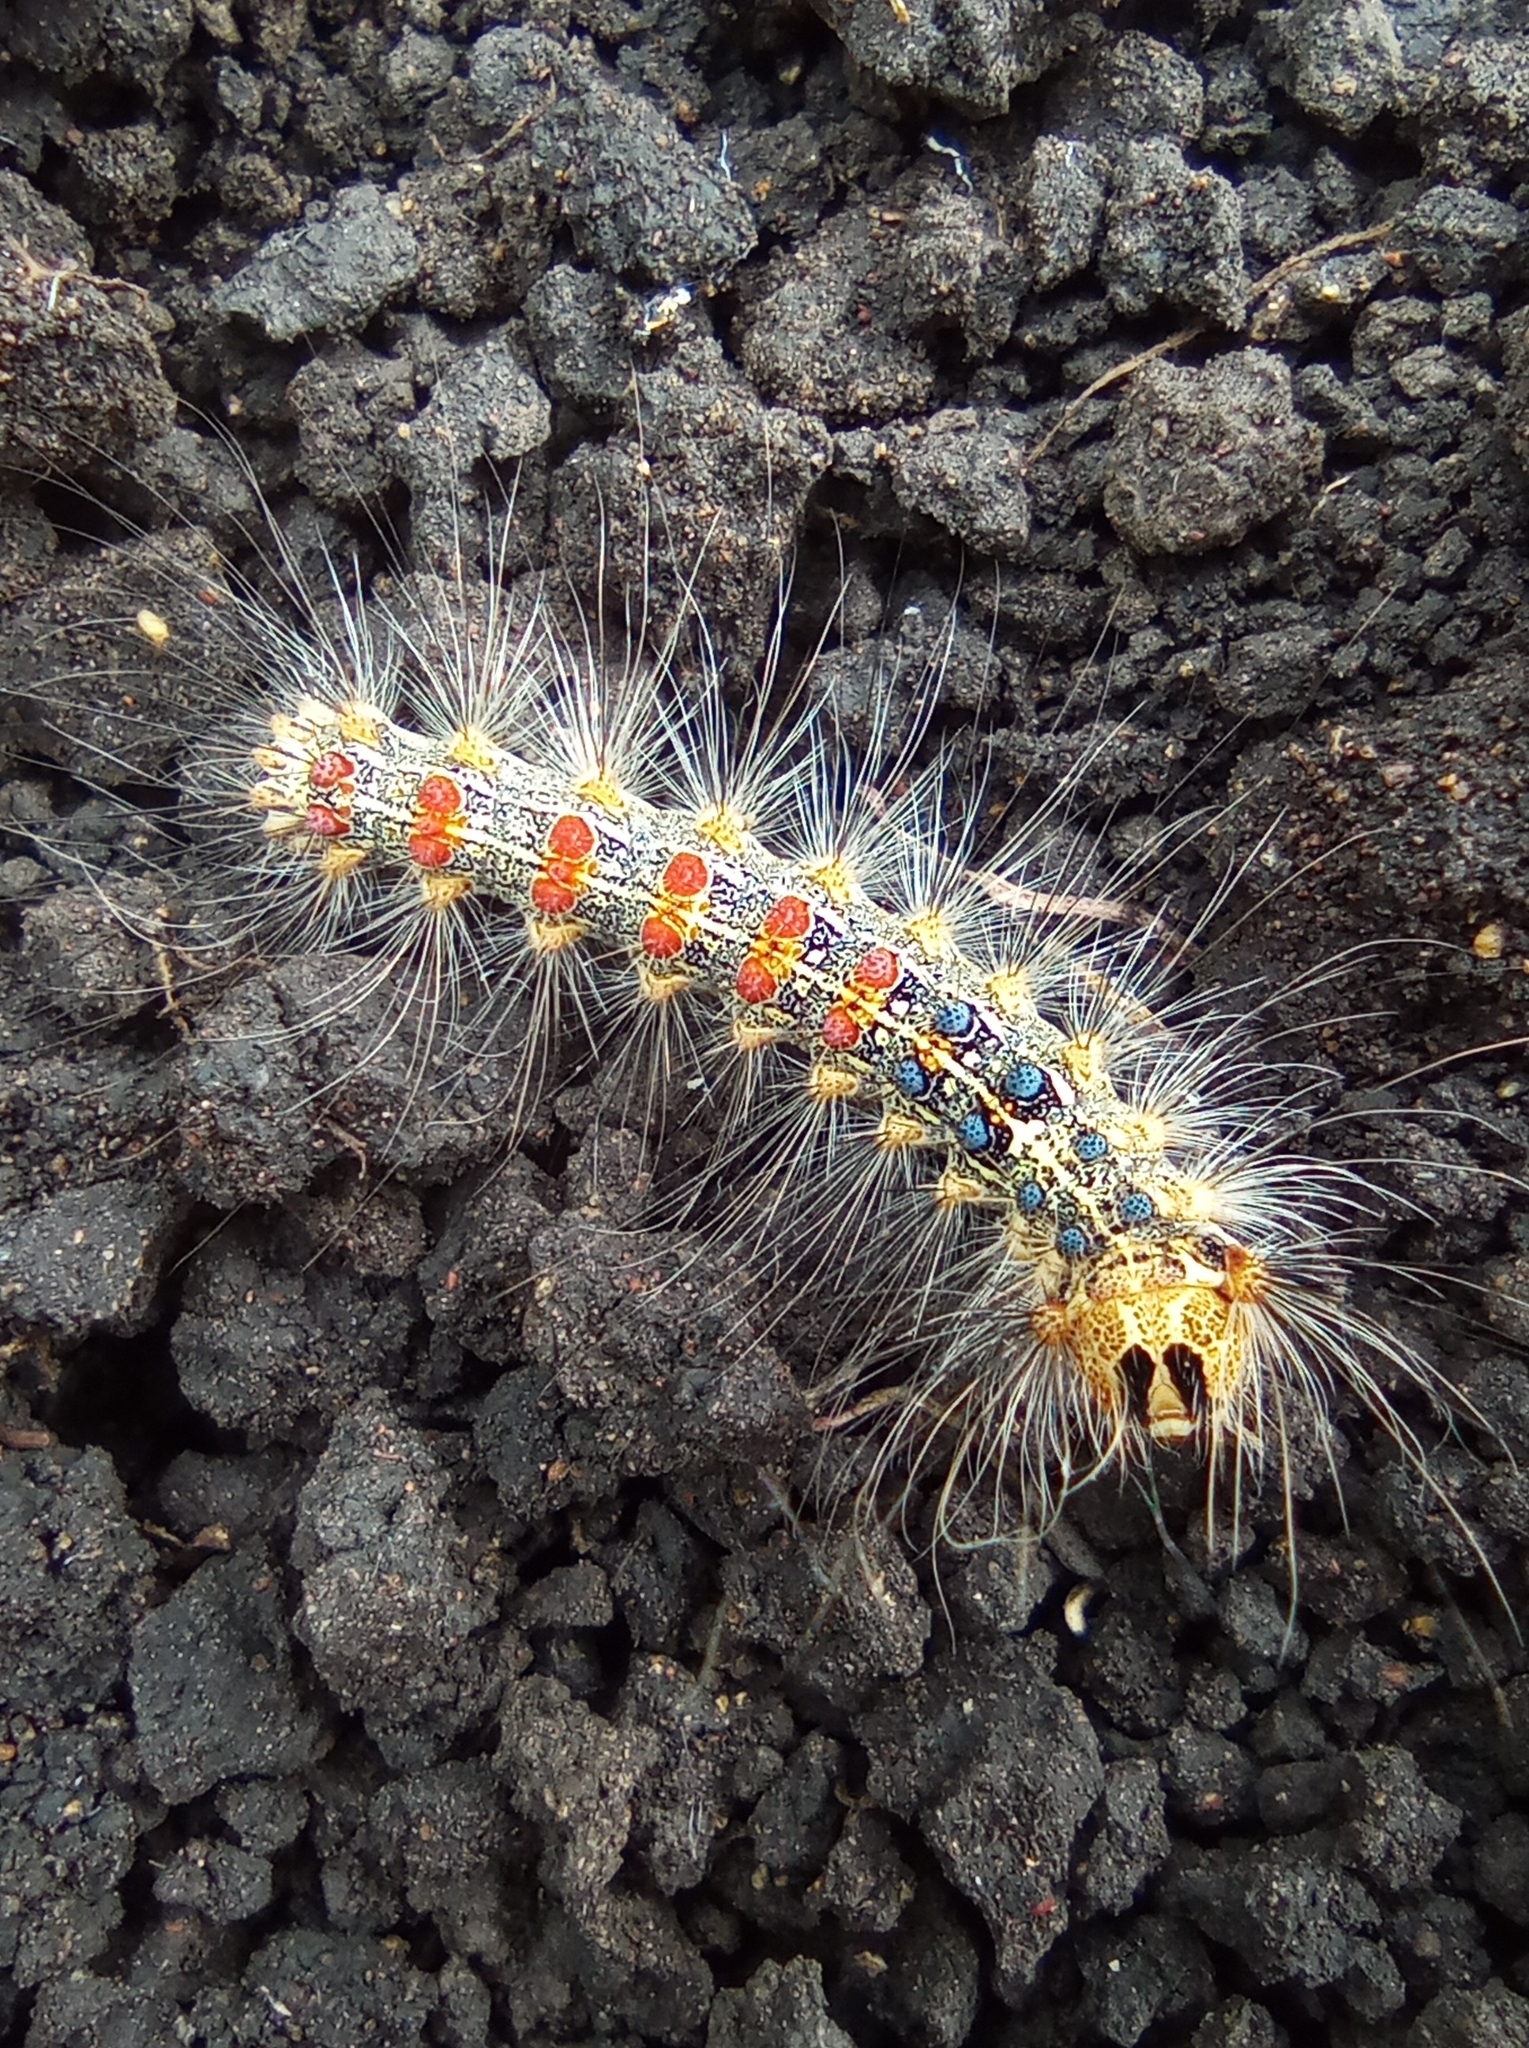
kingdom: Animalia
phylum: Arthropoda
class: Insecta
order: Lepidoptera
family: Erebidae
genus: Lymantria
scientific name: Lymantria dispar
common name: Gypsy moth
